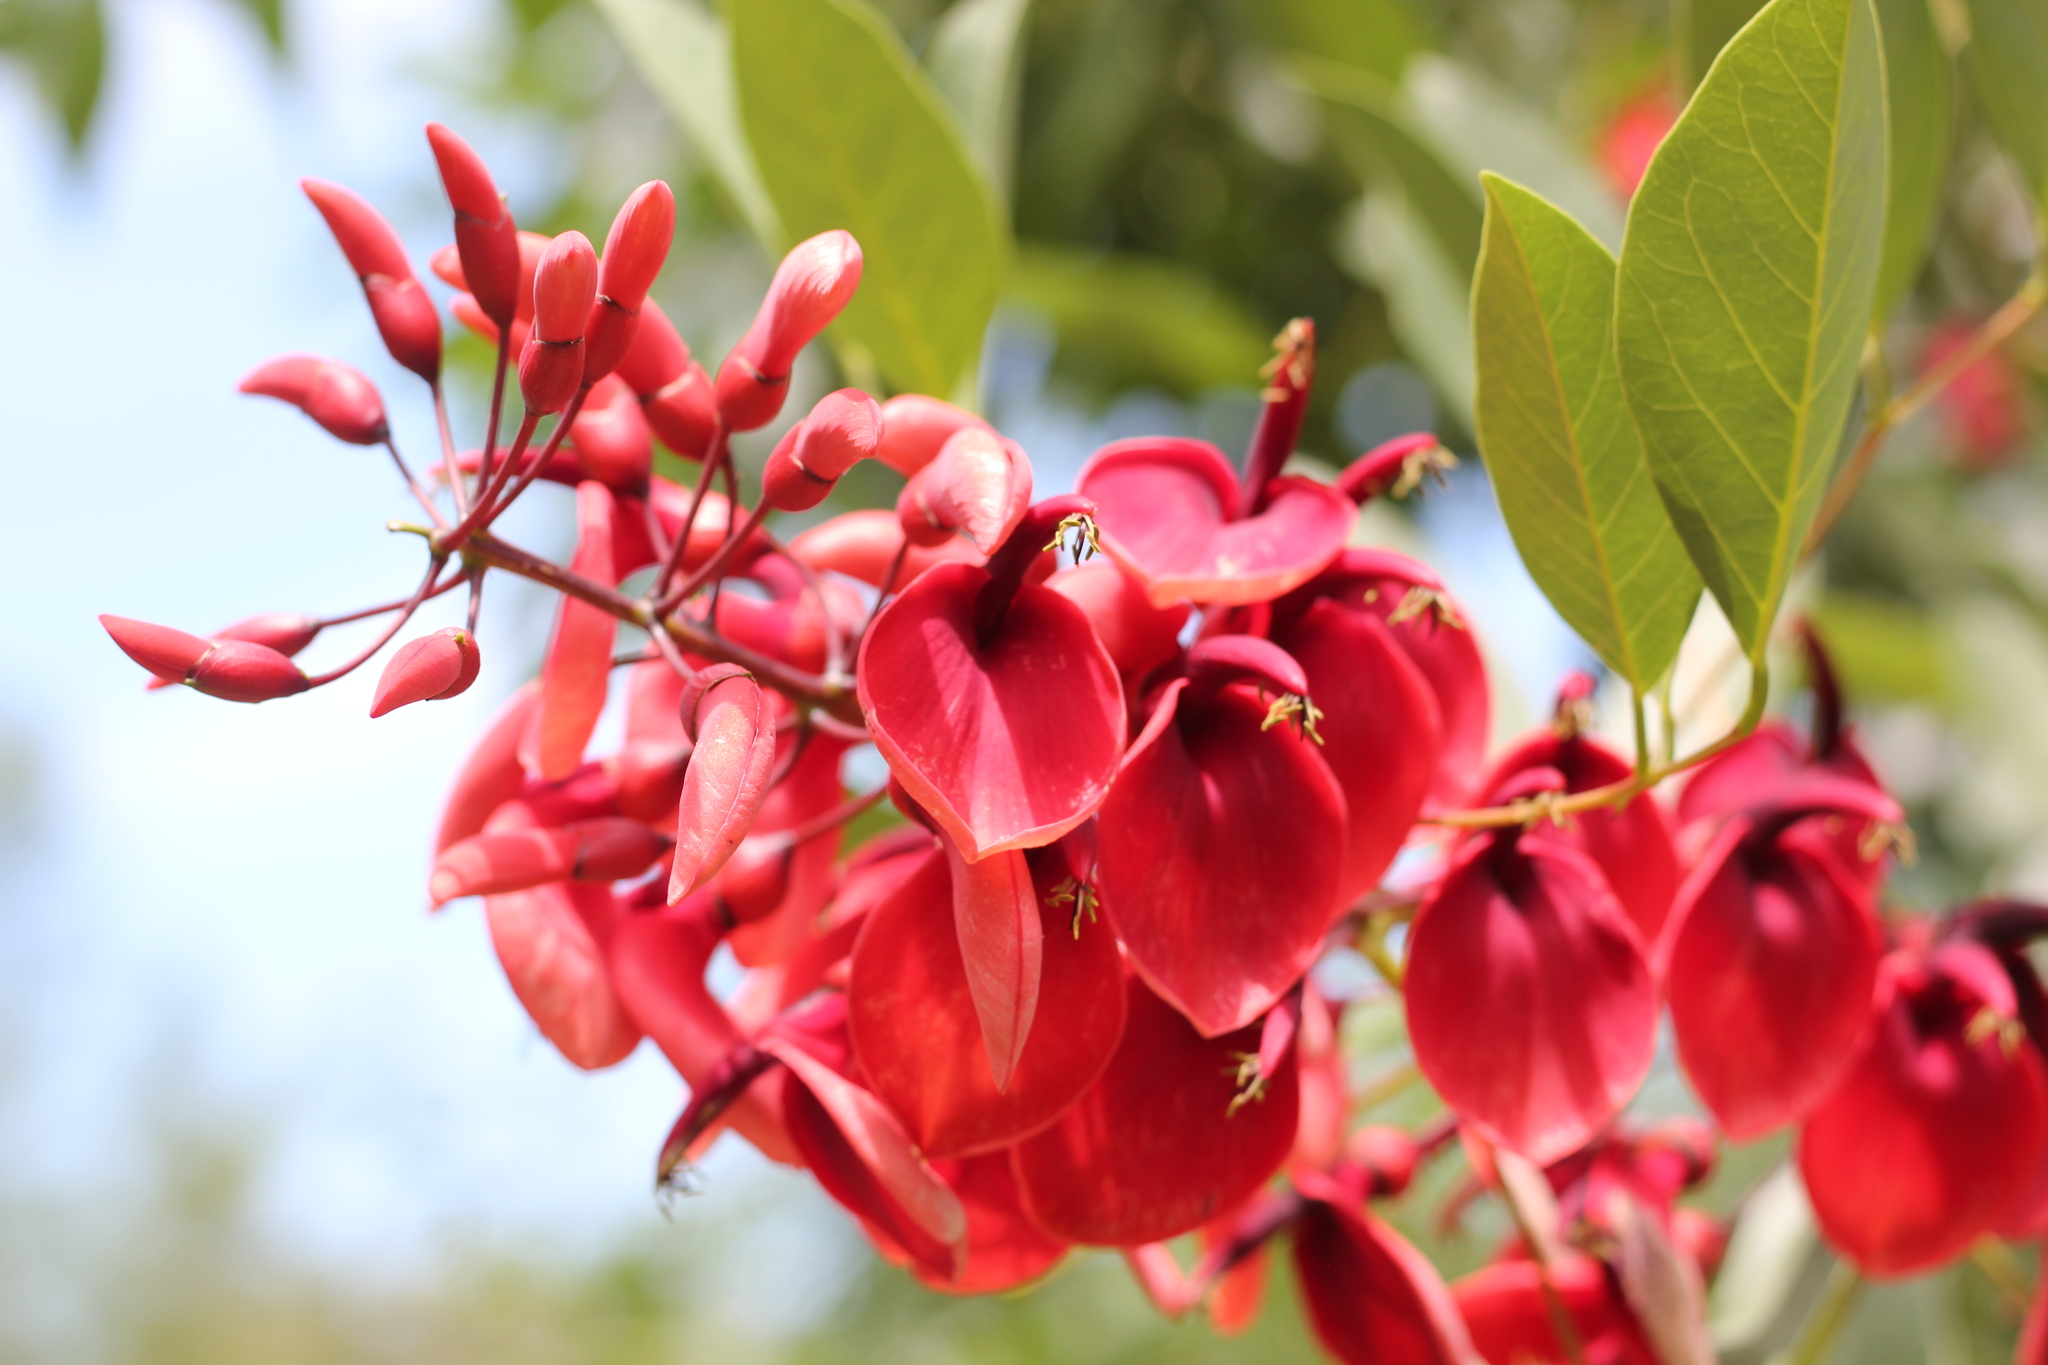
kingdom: Plantae
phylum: Tracheophyta
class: Magnoliopsida
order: Fabales
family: Fabaceae
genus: Erythrina
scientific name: Erythrina crista-galli
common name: Cockspur coral tree
